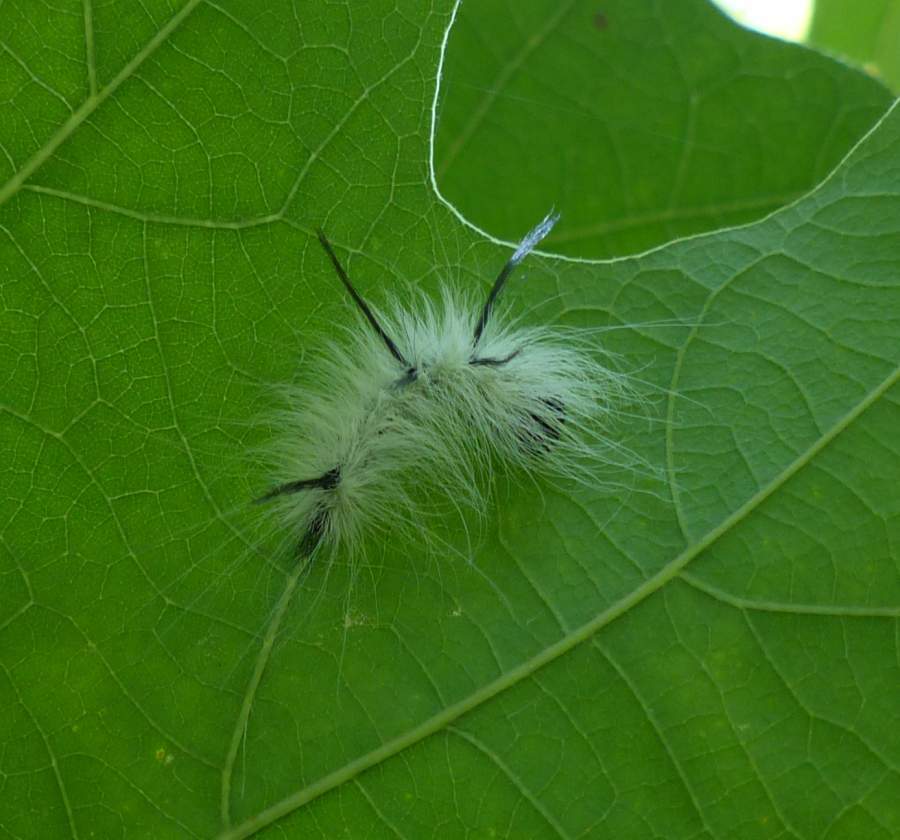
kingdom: Animalia
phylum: Arthropoda
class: Insecta
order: Lepidoptera
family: Noctuidae
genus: Acronicta
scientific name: Acronicta americana
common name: American dagger
